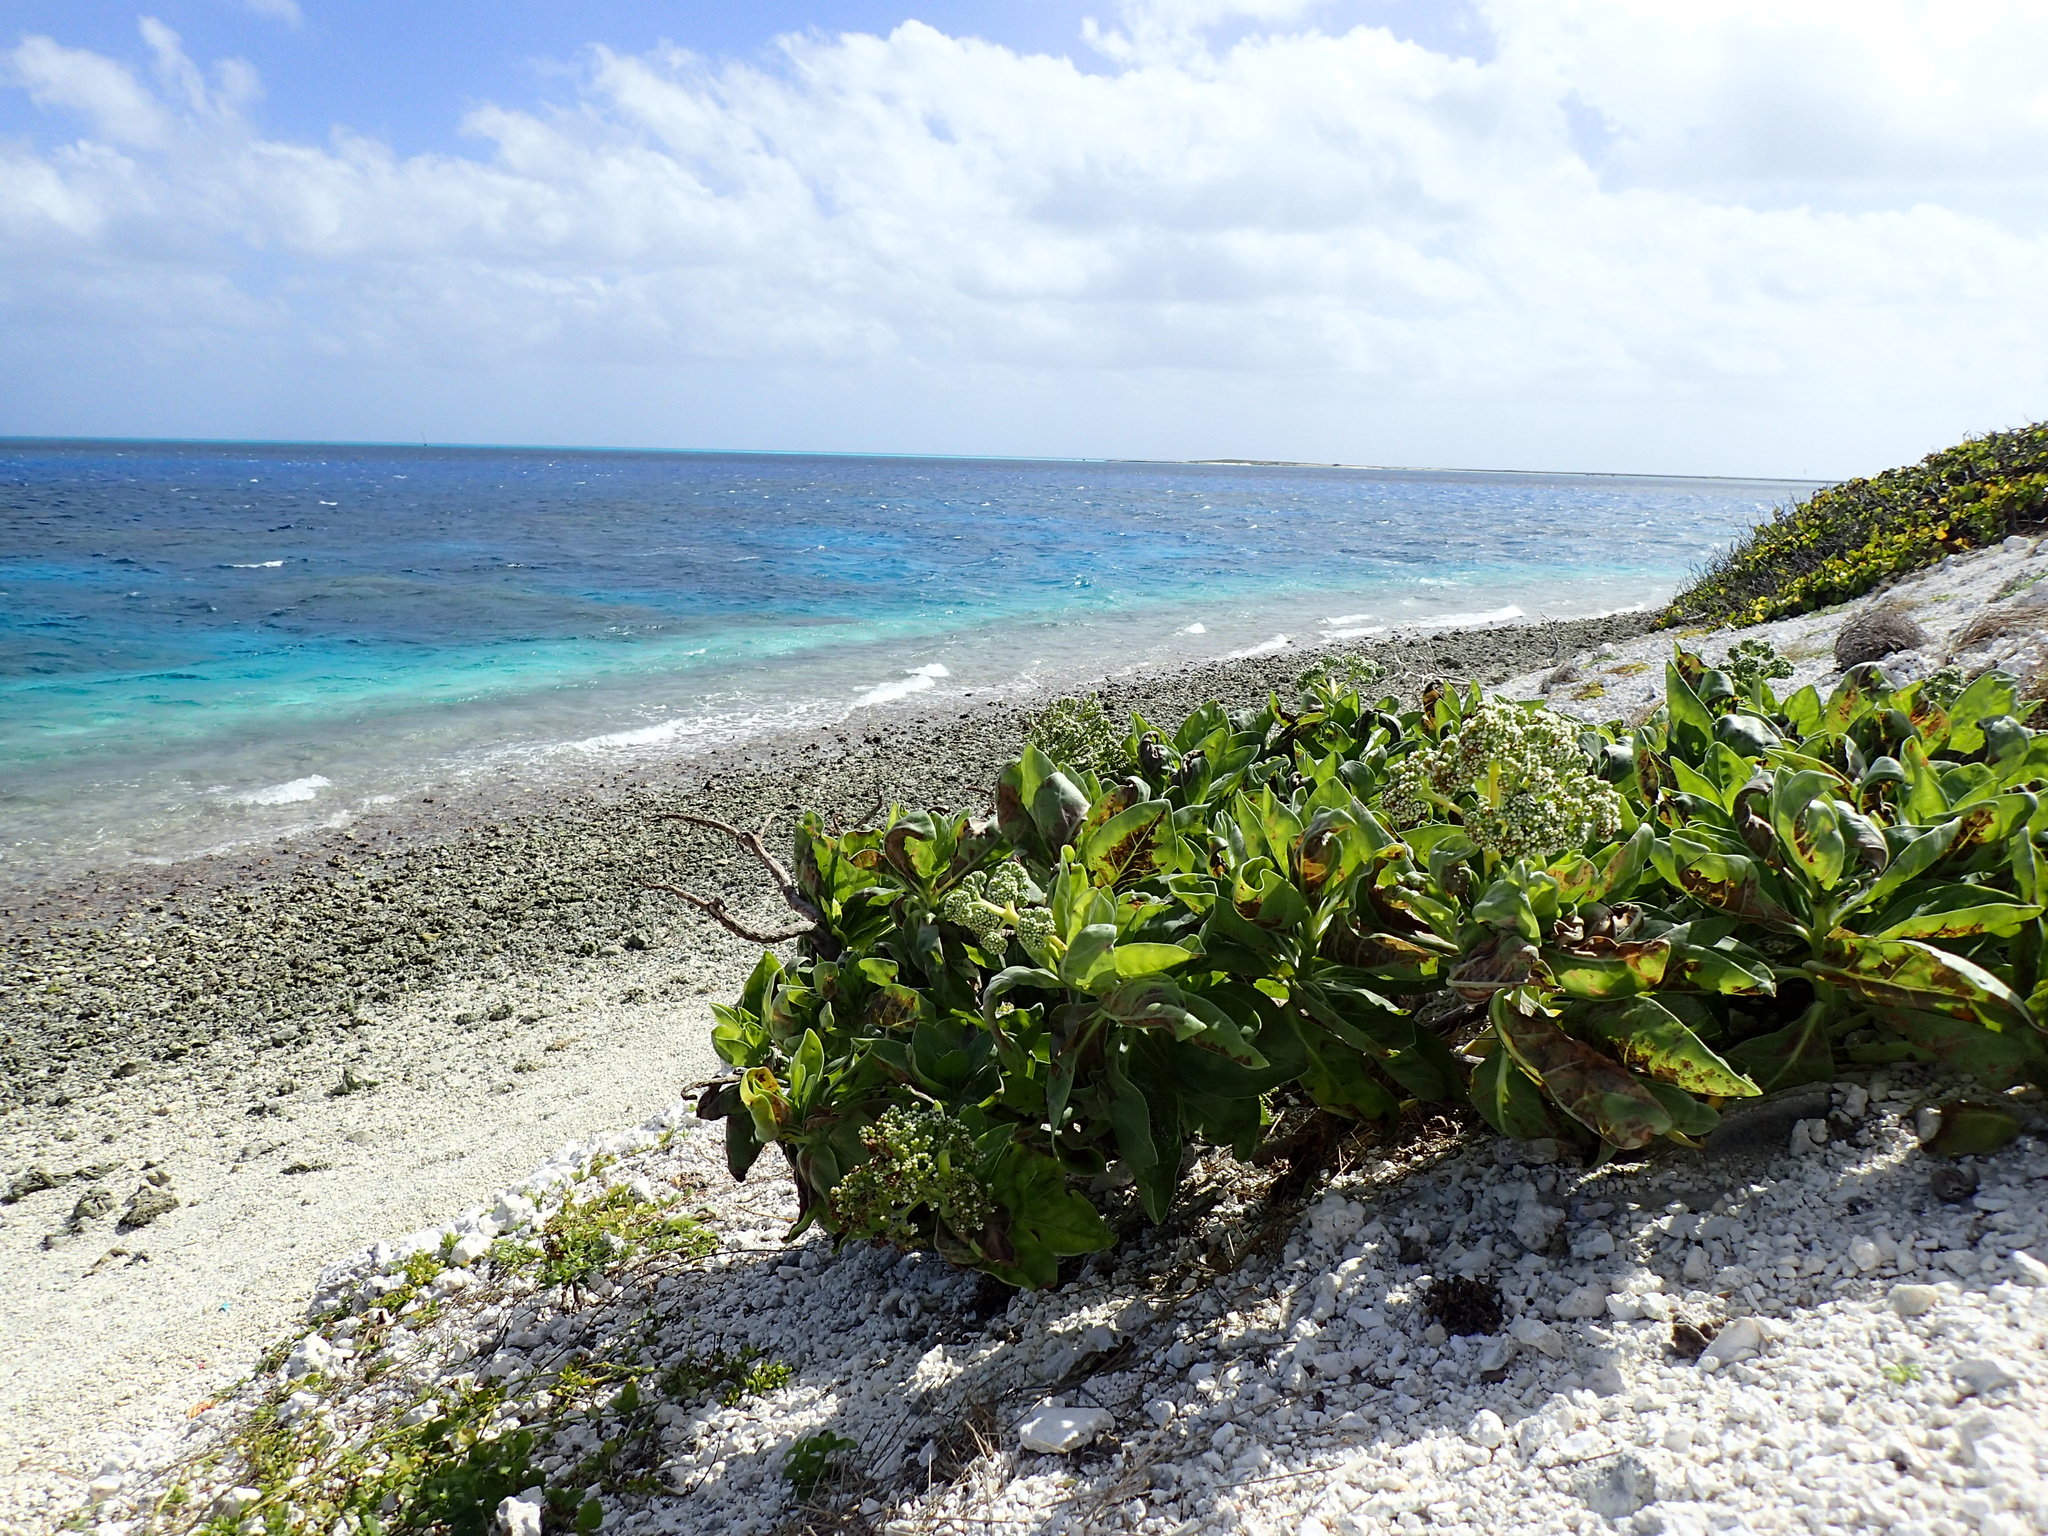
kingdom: Plantae
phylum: Tracheophyta
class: Magnoliopsida
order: Boraginales
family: Heliotropiaceae
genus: Heliotropium
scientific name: Heliotropium velutinum
